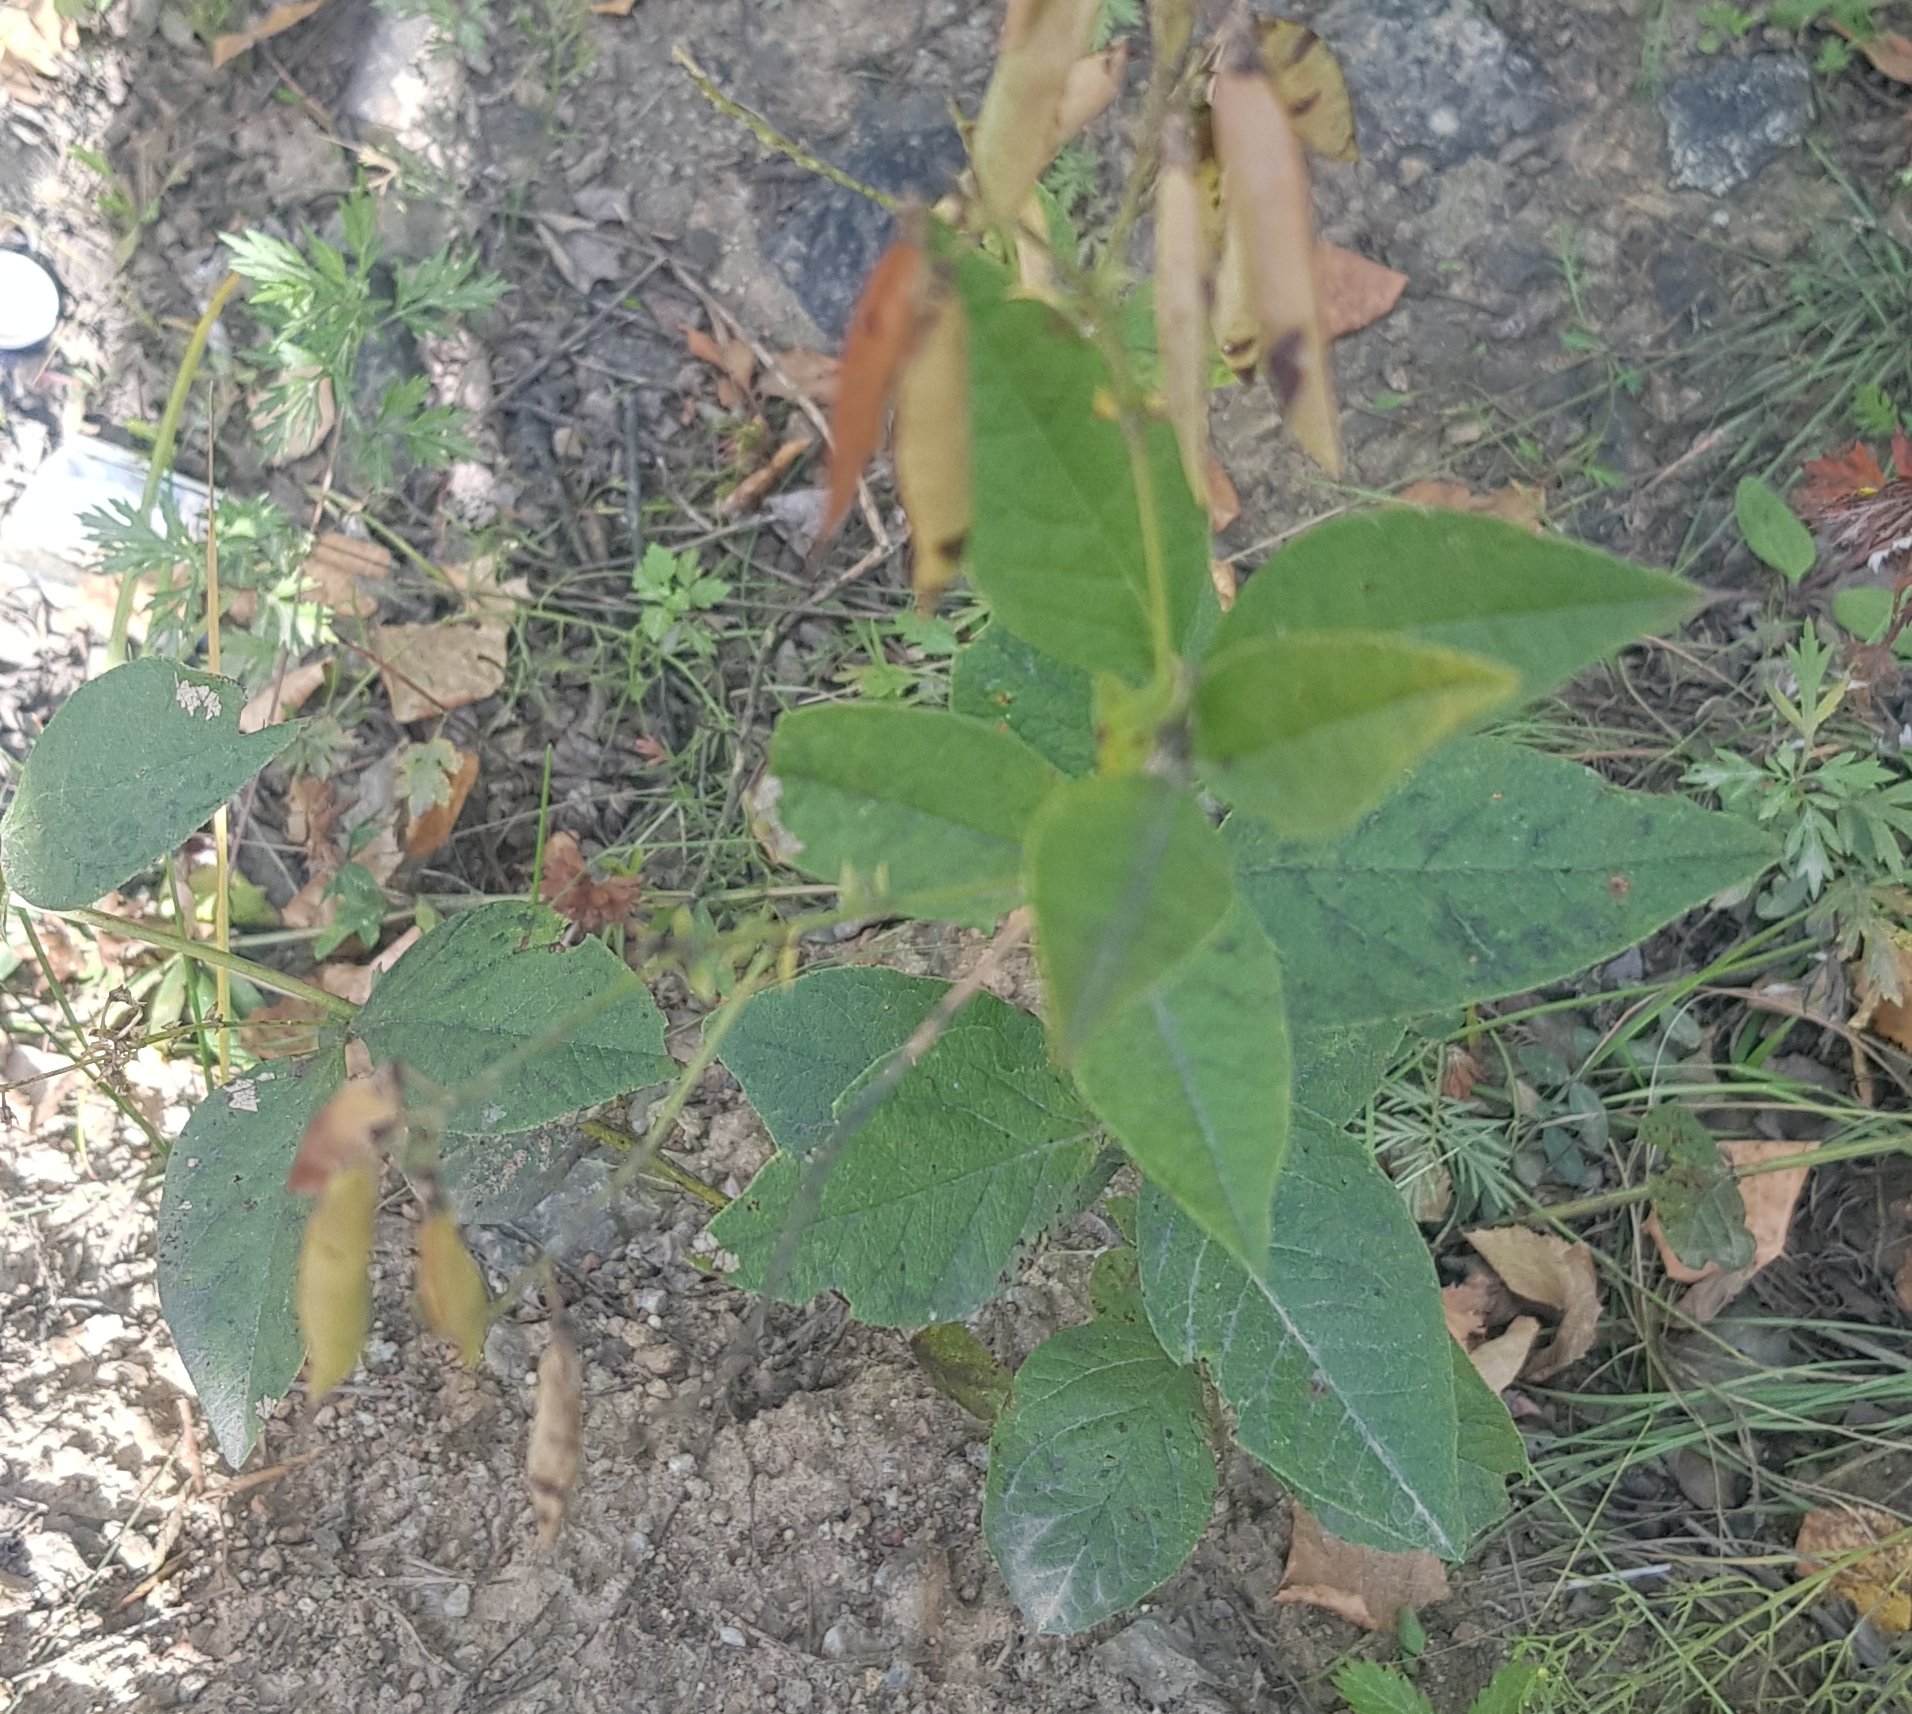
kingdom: Plantae
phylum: Tracheophyta
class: Magnoliopsida
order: Fabales
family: Fabaceae
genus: Vicia
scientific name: Vicia unijuga
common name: Two-leaf vetch
